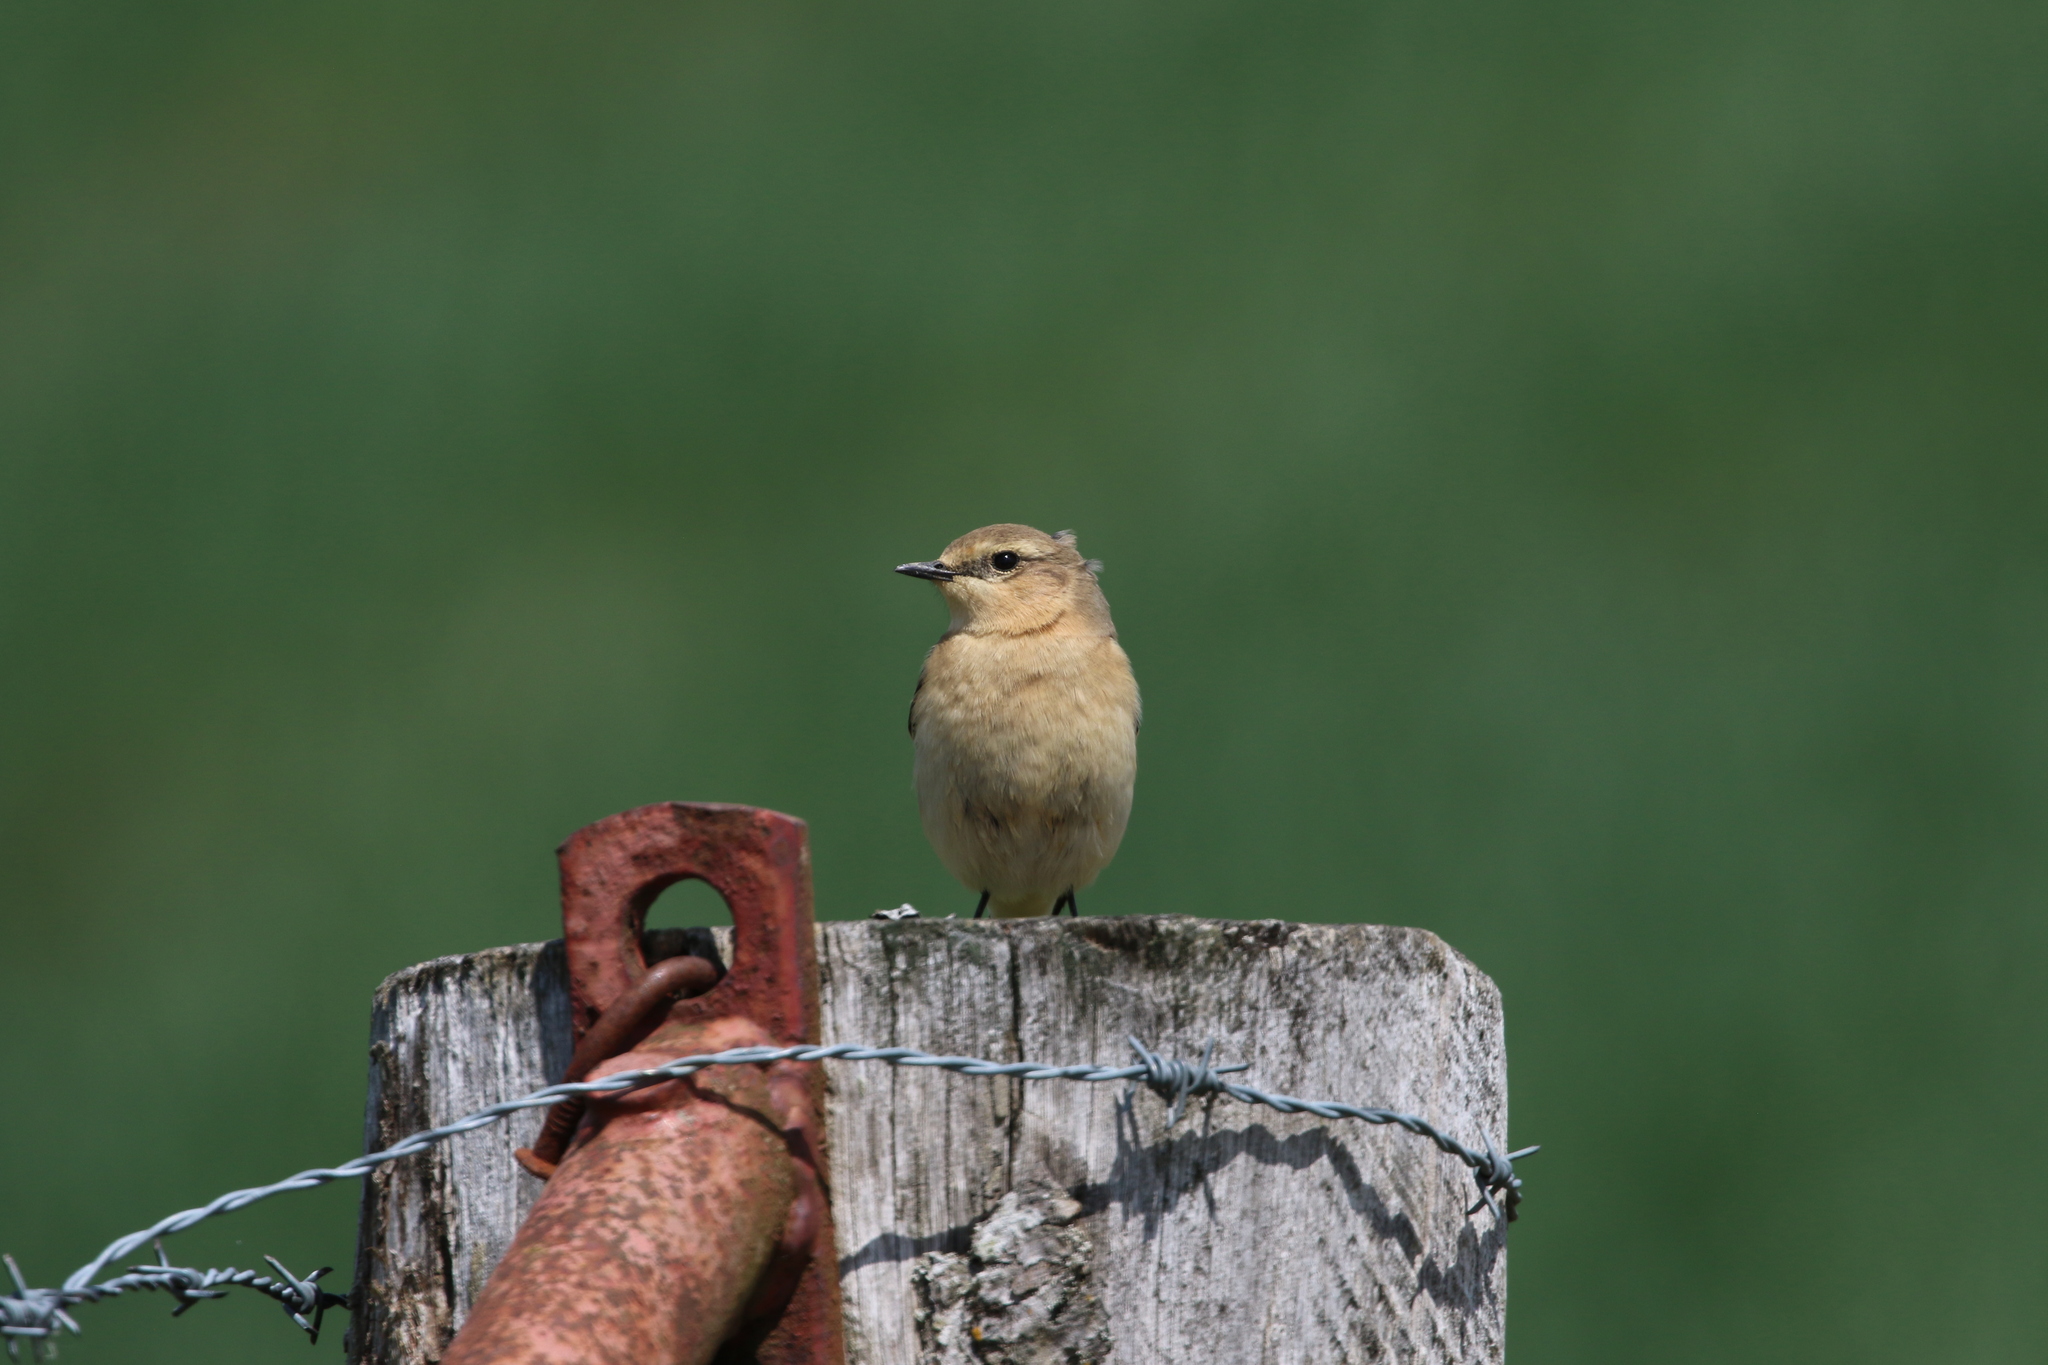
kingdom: Animalia
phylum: Chordata
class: Aves
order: Passeriformes
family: Muscicapidae
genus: Oenanthe
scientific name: Oenanthe oenanthe
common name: Northern wheatear
